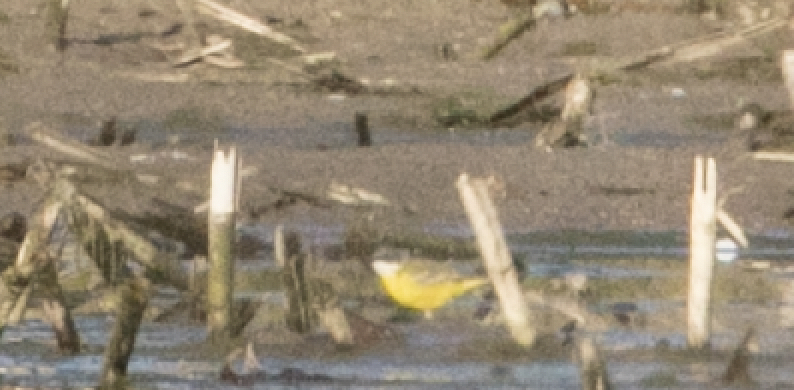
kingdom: Animalia
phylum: Chordata
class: Aves
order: Passeriformes
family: Motacillidae
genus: Motacilla
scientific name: Motacilla flava
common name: Western yellow wagtail
